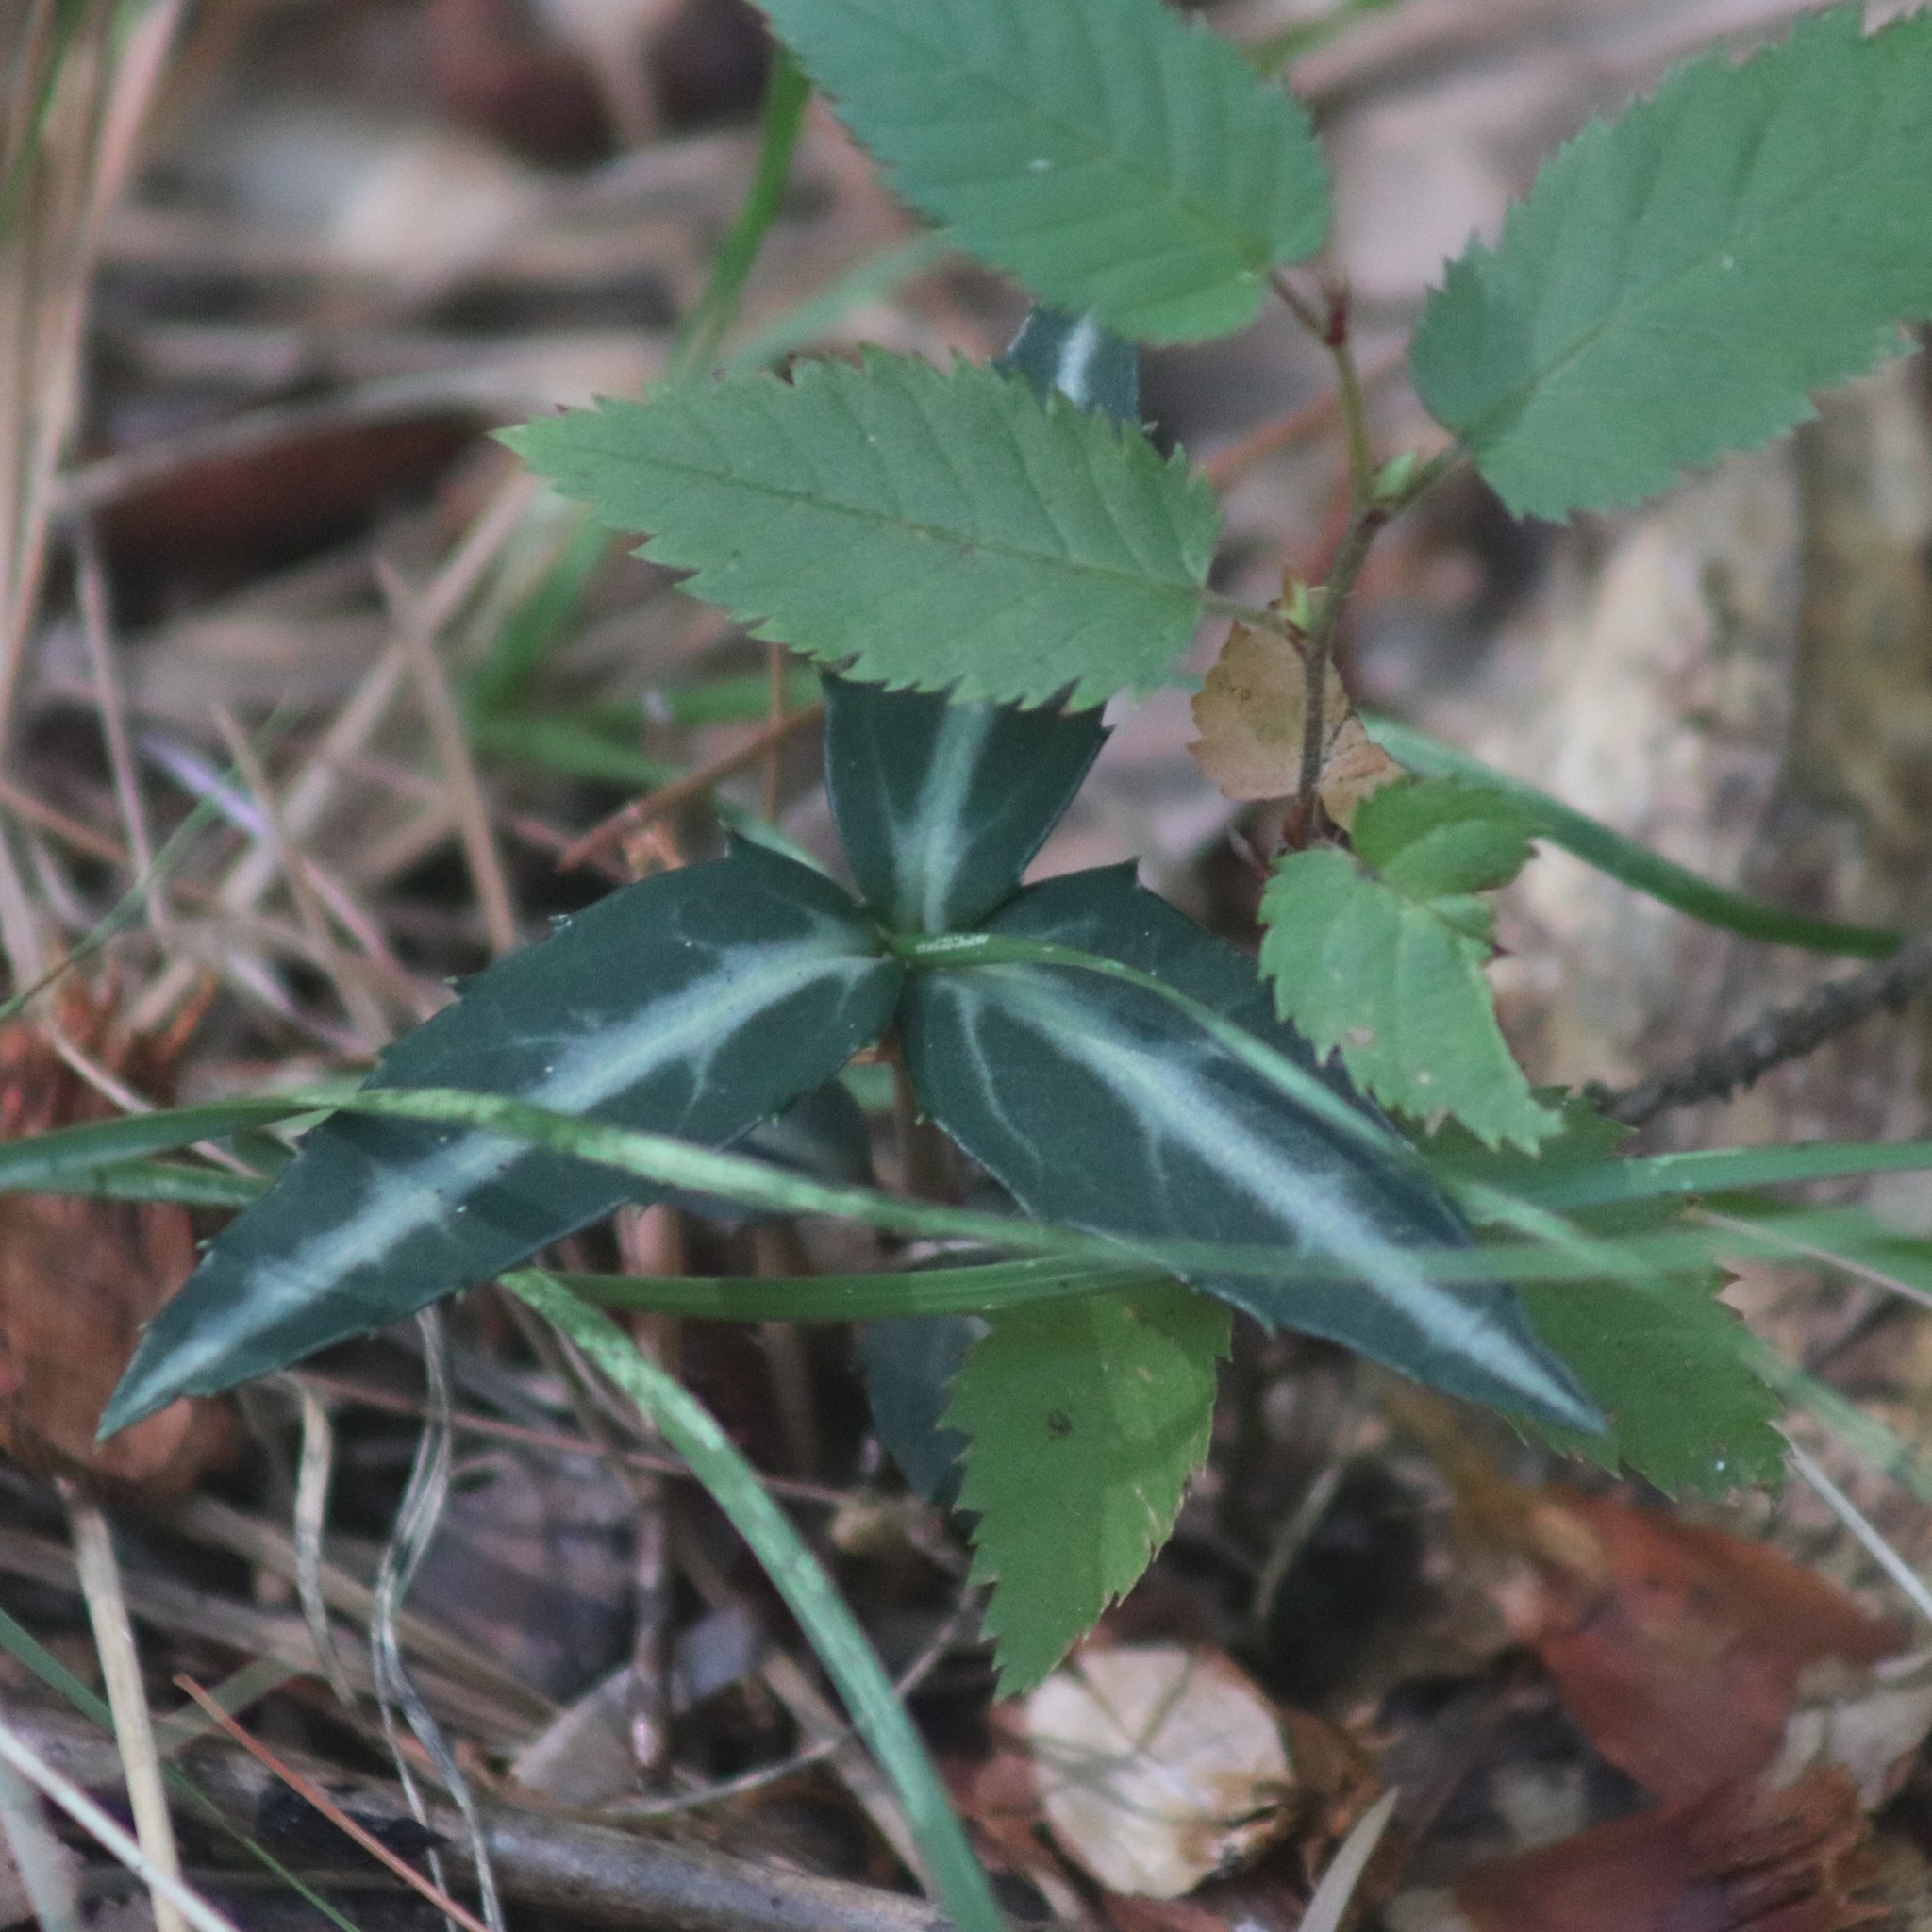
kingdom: Plantae
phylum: Tracheophyta
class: Magnoliopsida
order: Ericales
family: Ericaceae
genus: Chimaphila
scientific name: Chimaphila maculata
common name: Spotted pipsissewa
